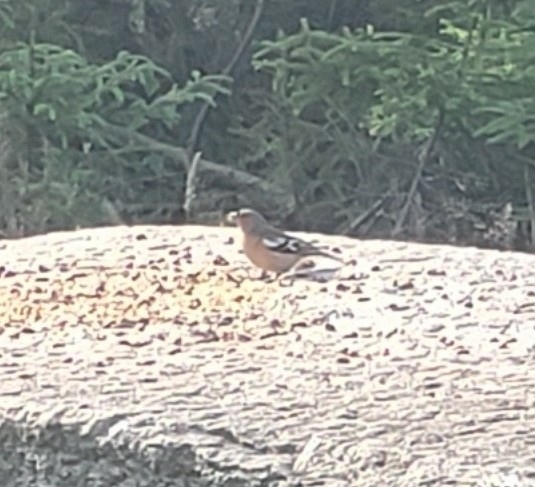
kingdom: Animalia
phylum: Chordata
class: Aves
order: Passeriformes
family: Fringillidae
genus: Fringilla
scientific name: Fringilla coelebs
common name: Common chaffinch
